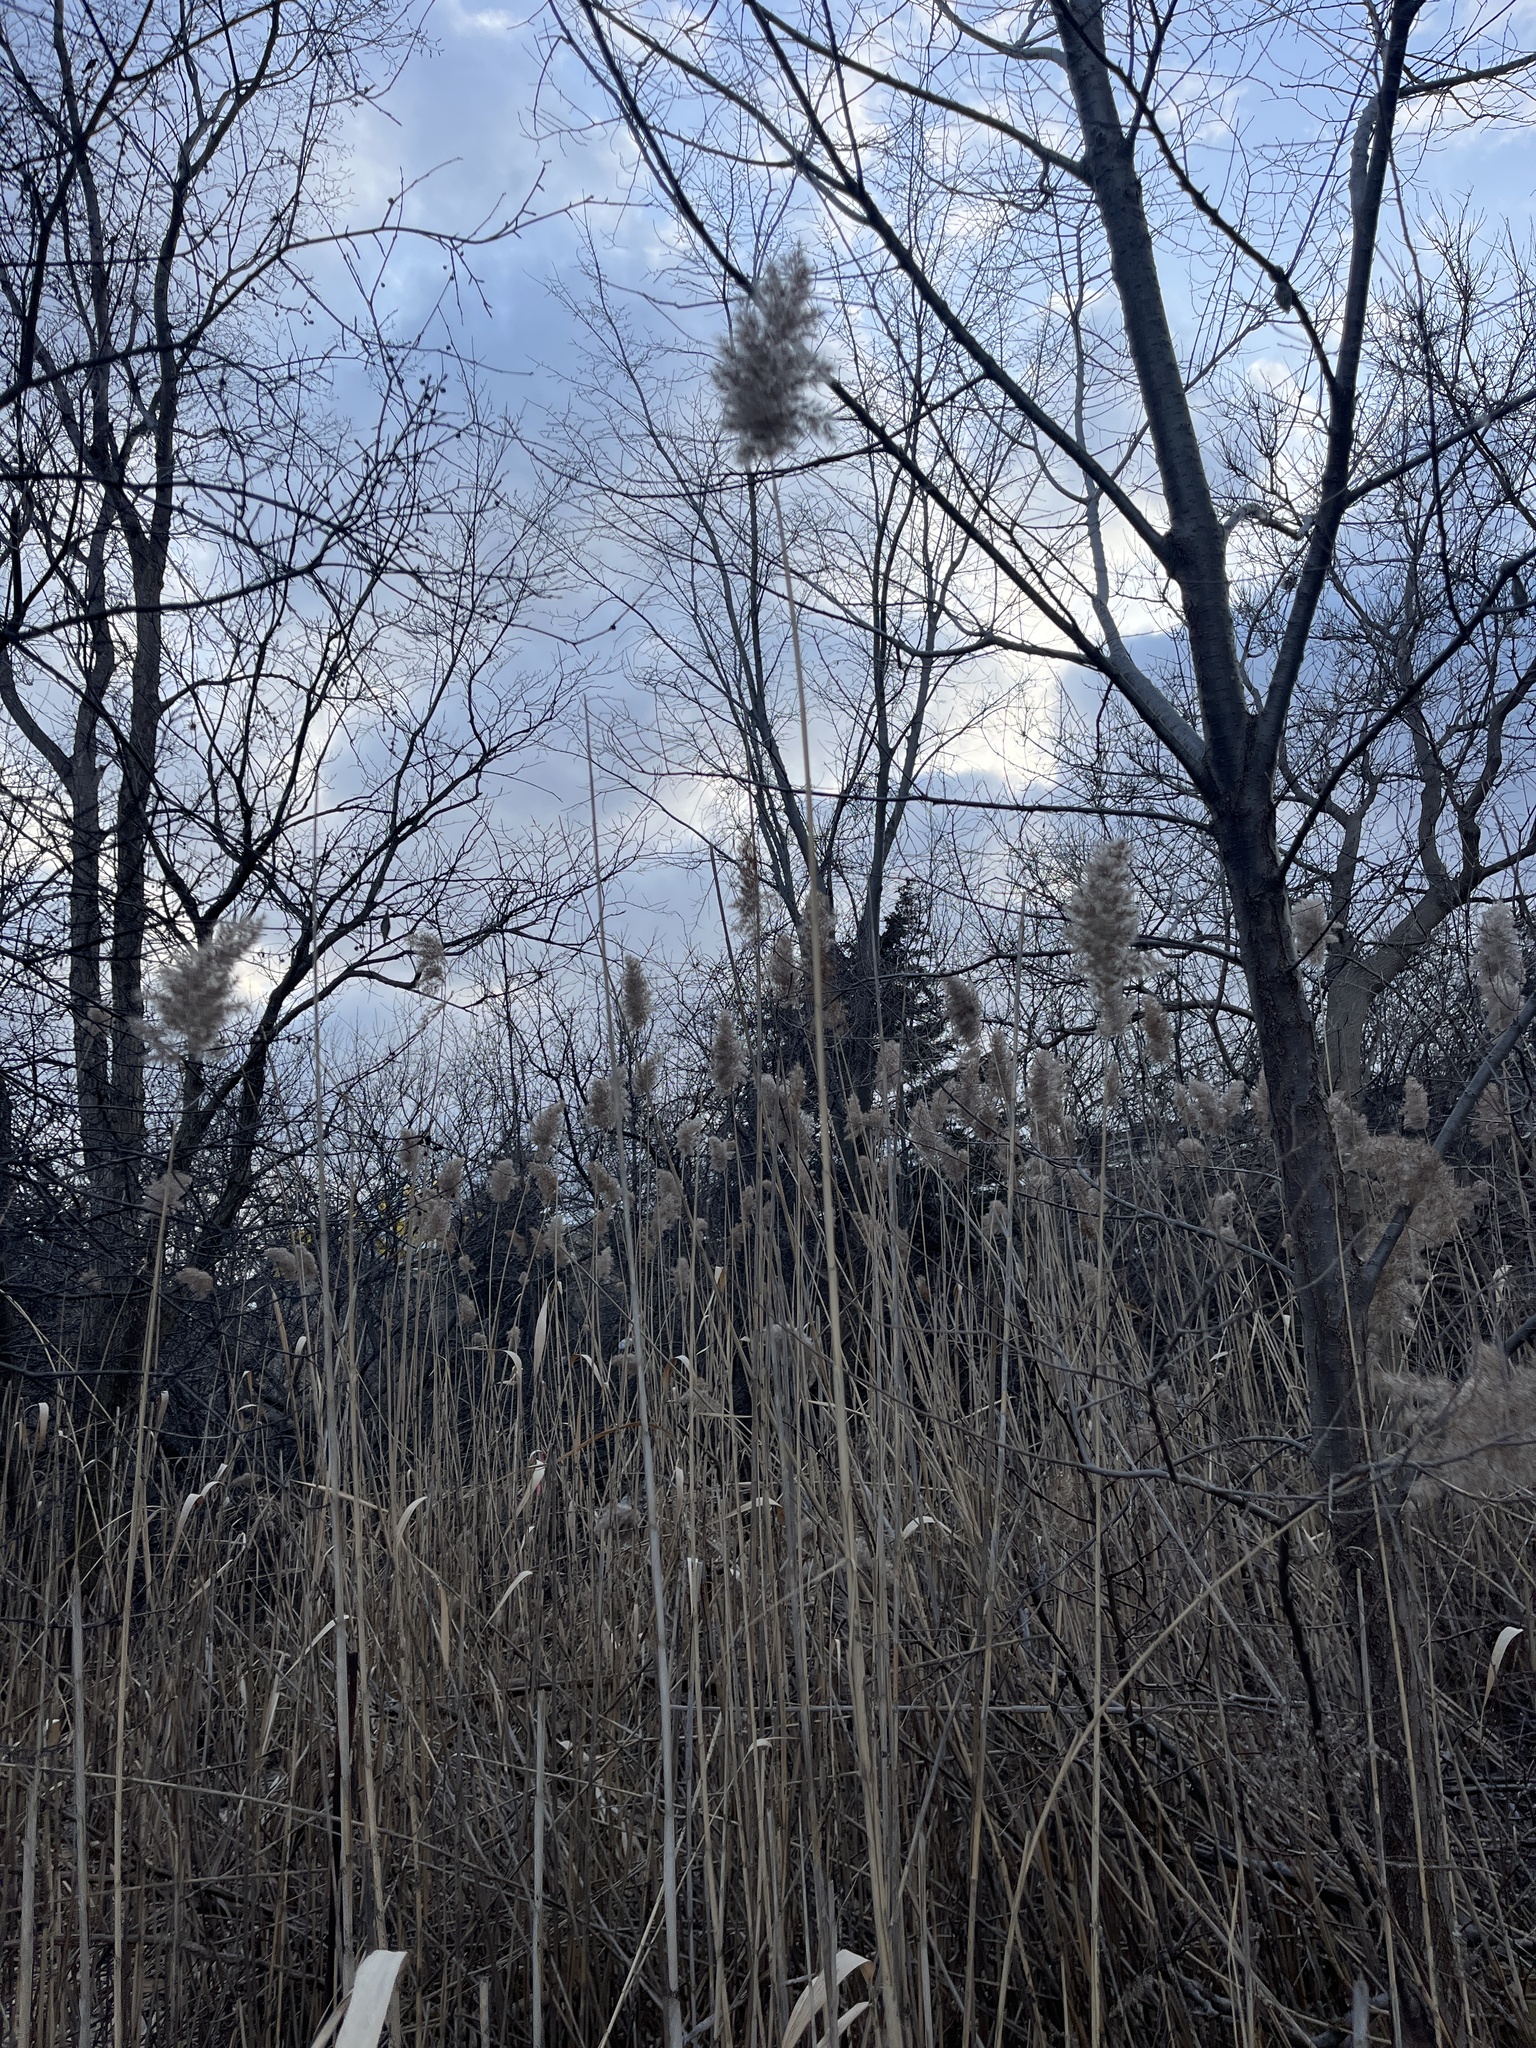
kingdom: Plantae
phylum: Tracheophyta
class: Liliopsida
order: Poales
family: Poaceae
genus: Phragmites
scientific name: Phragmites australis
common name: Common reed
